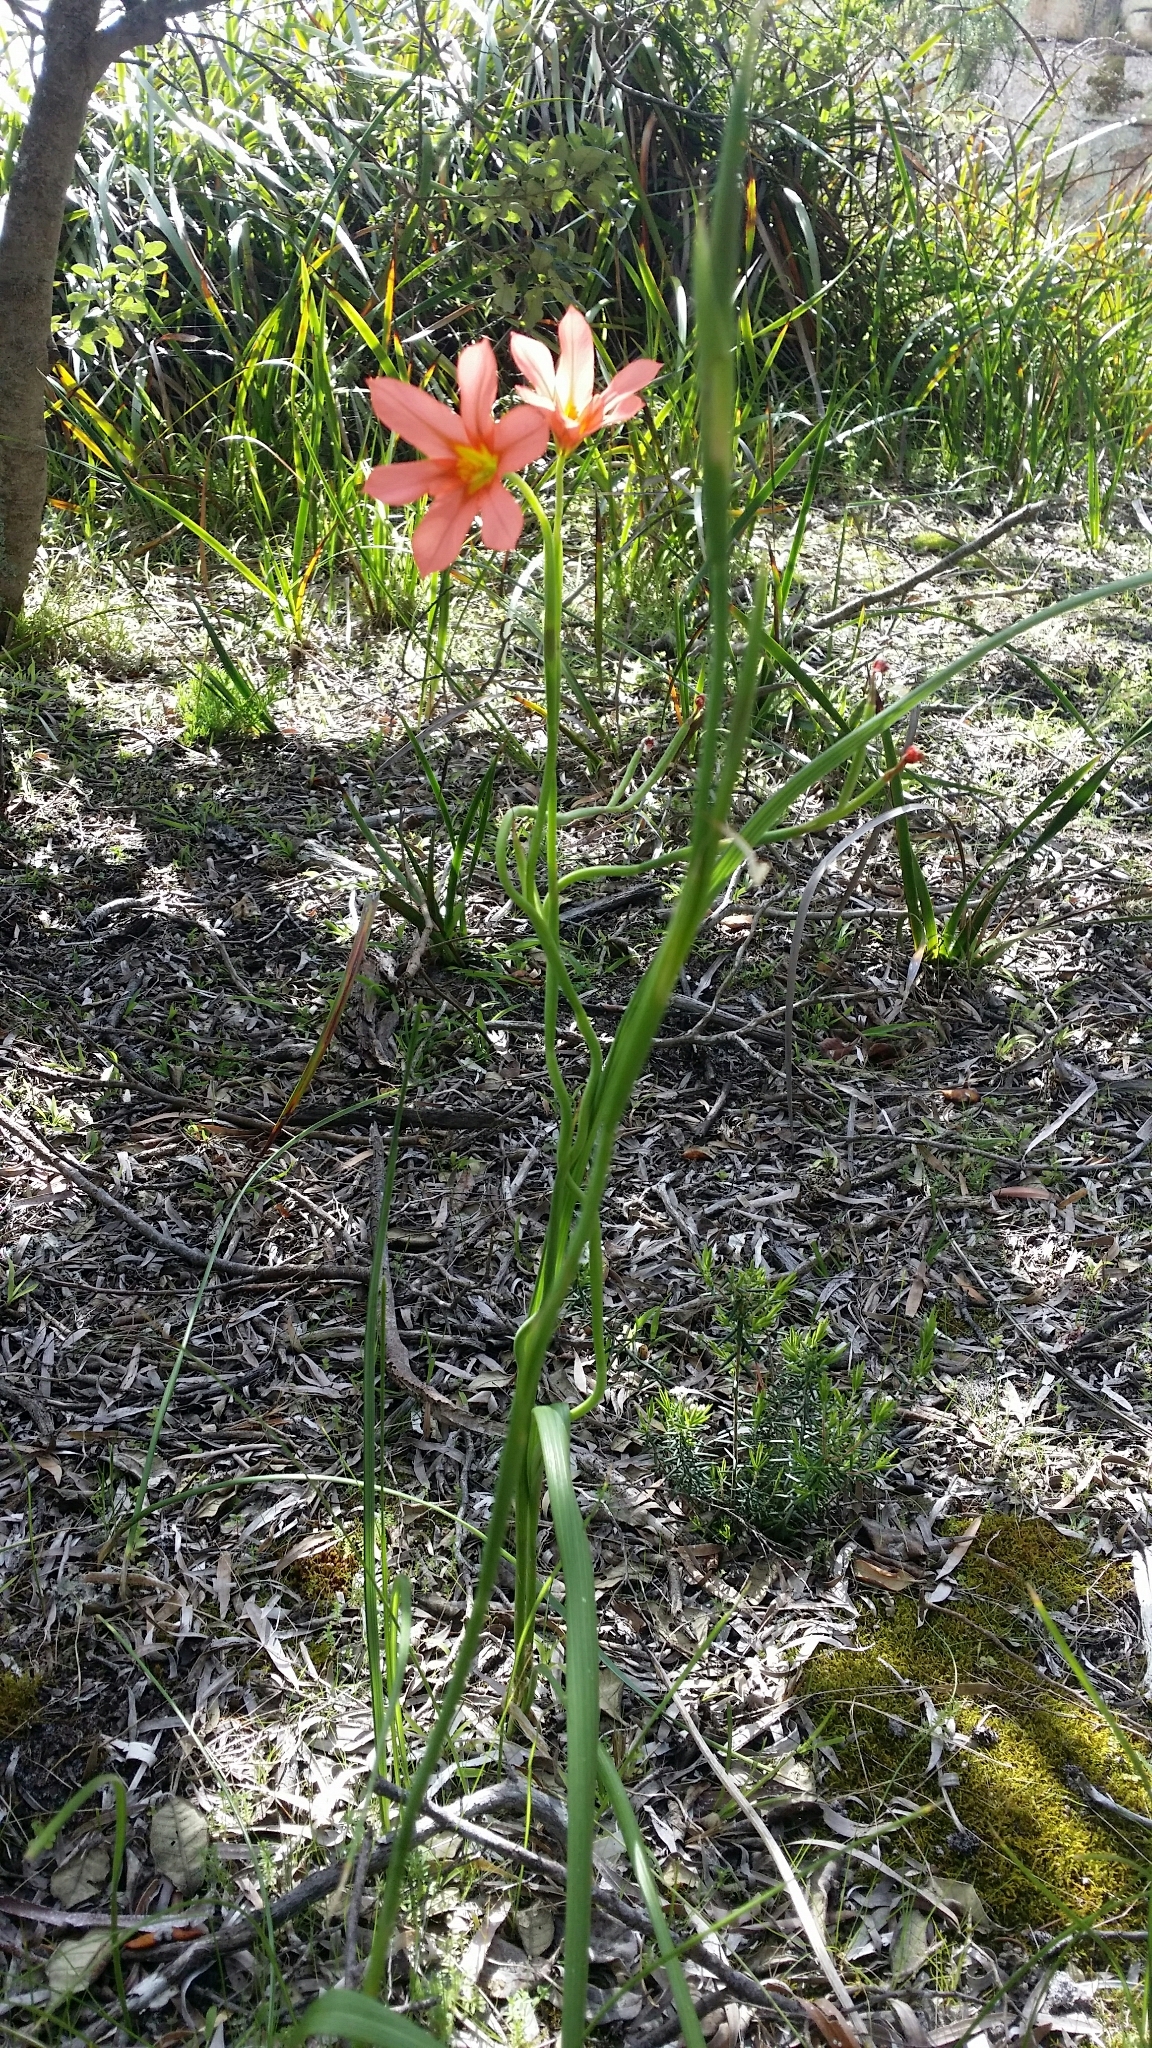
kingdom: Plantae
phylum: Tracheophyta
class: Liliopsida
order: Asparagales
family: Iridaceae
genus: Moraea
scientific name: Moraea flaccida
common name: One-leaf cape-tulip
